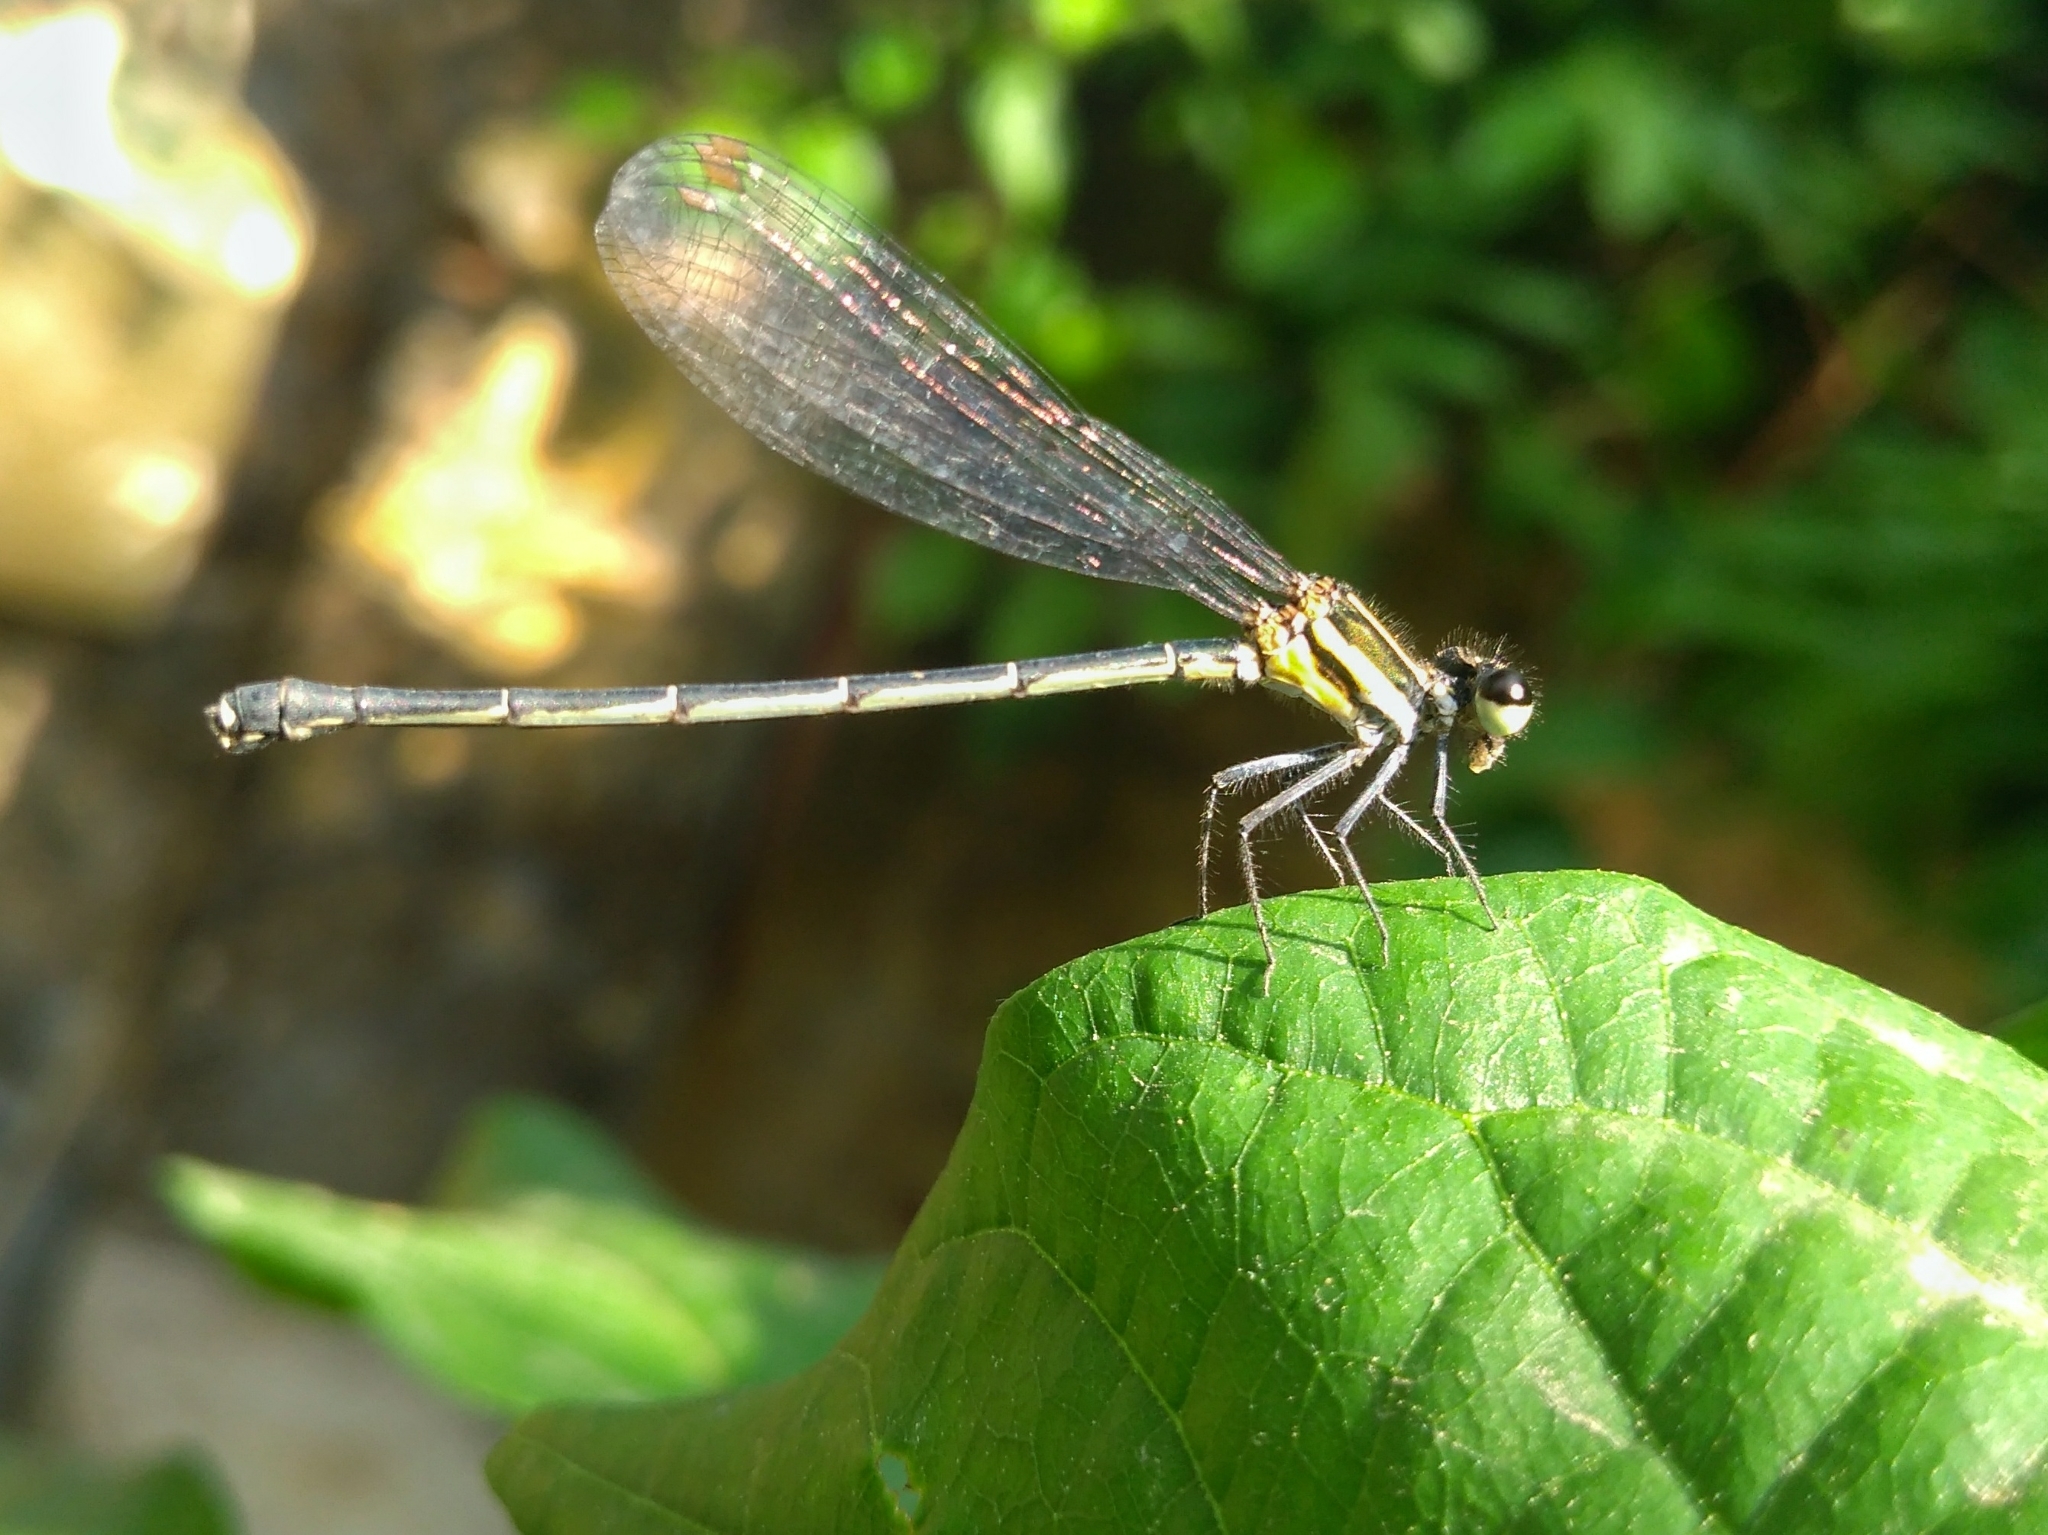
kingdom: Animalia
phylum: Arthropoda
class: Insecta
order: Odonata
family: Platycnemididae
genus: Onychargia
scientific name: Onychargia atrocyana
